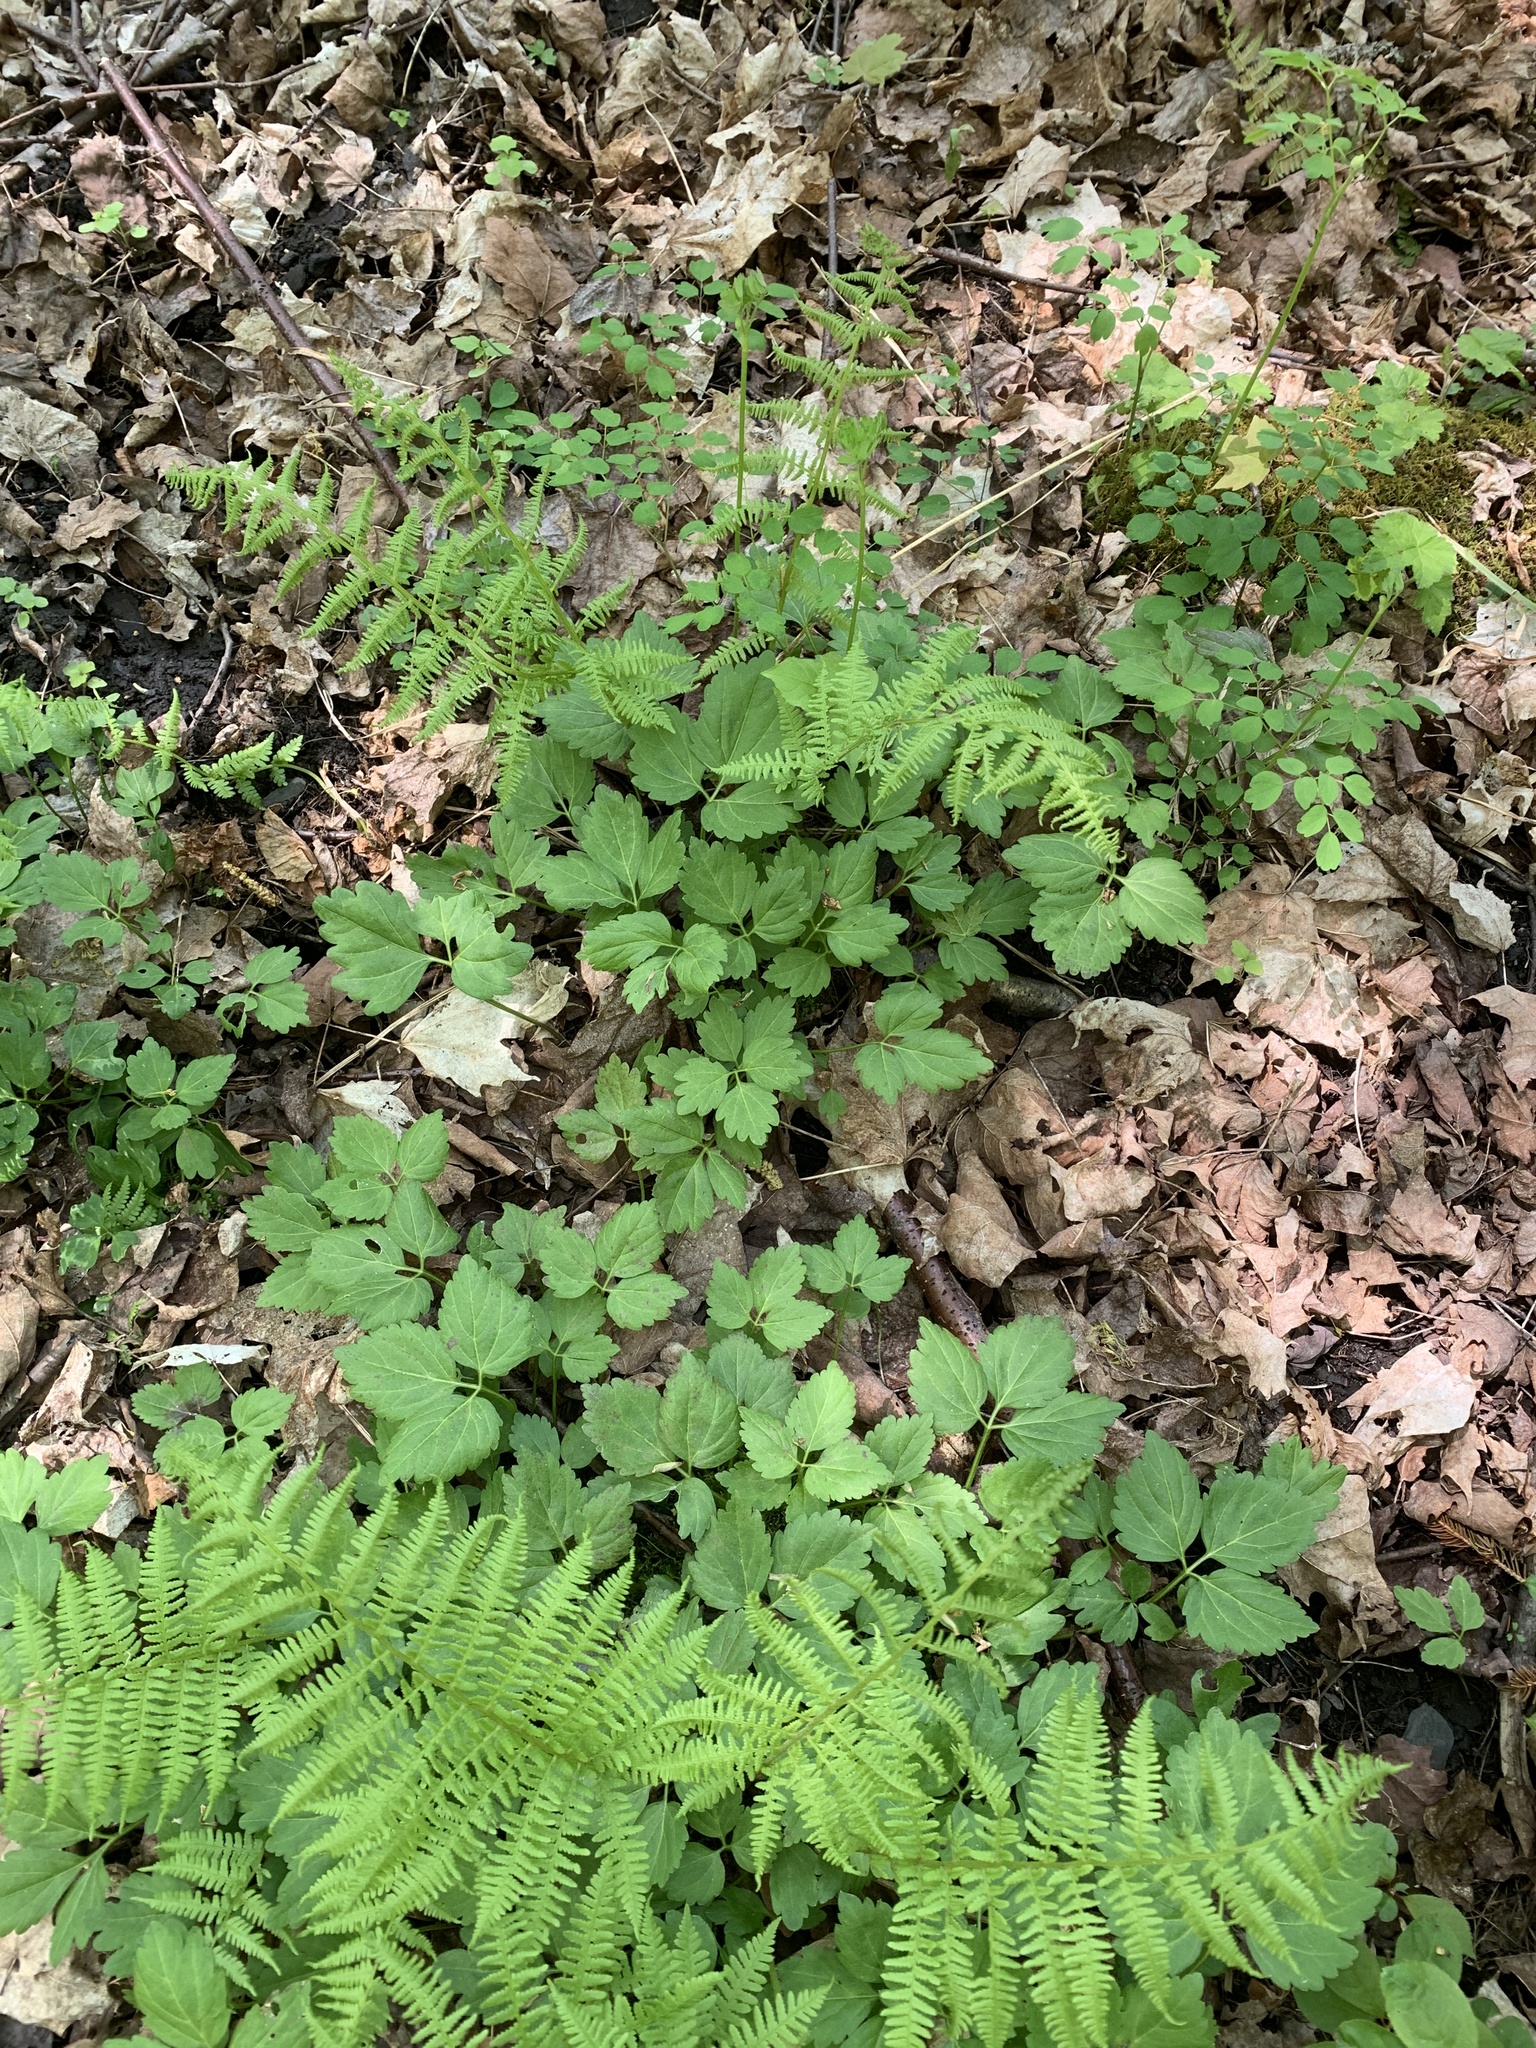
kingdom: Plantae
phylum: Tracheophyta
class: Magnoliopsida
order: Brassicales
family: Brassicaceae
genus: Cardamine
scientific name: Cardamine diphylla
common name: Broad-leaved toothwort
